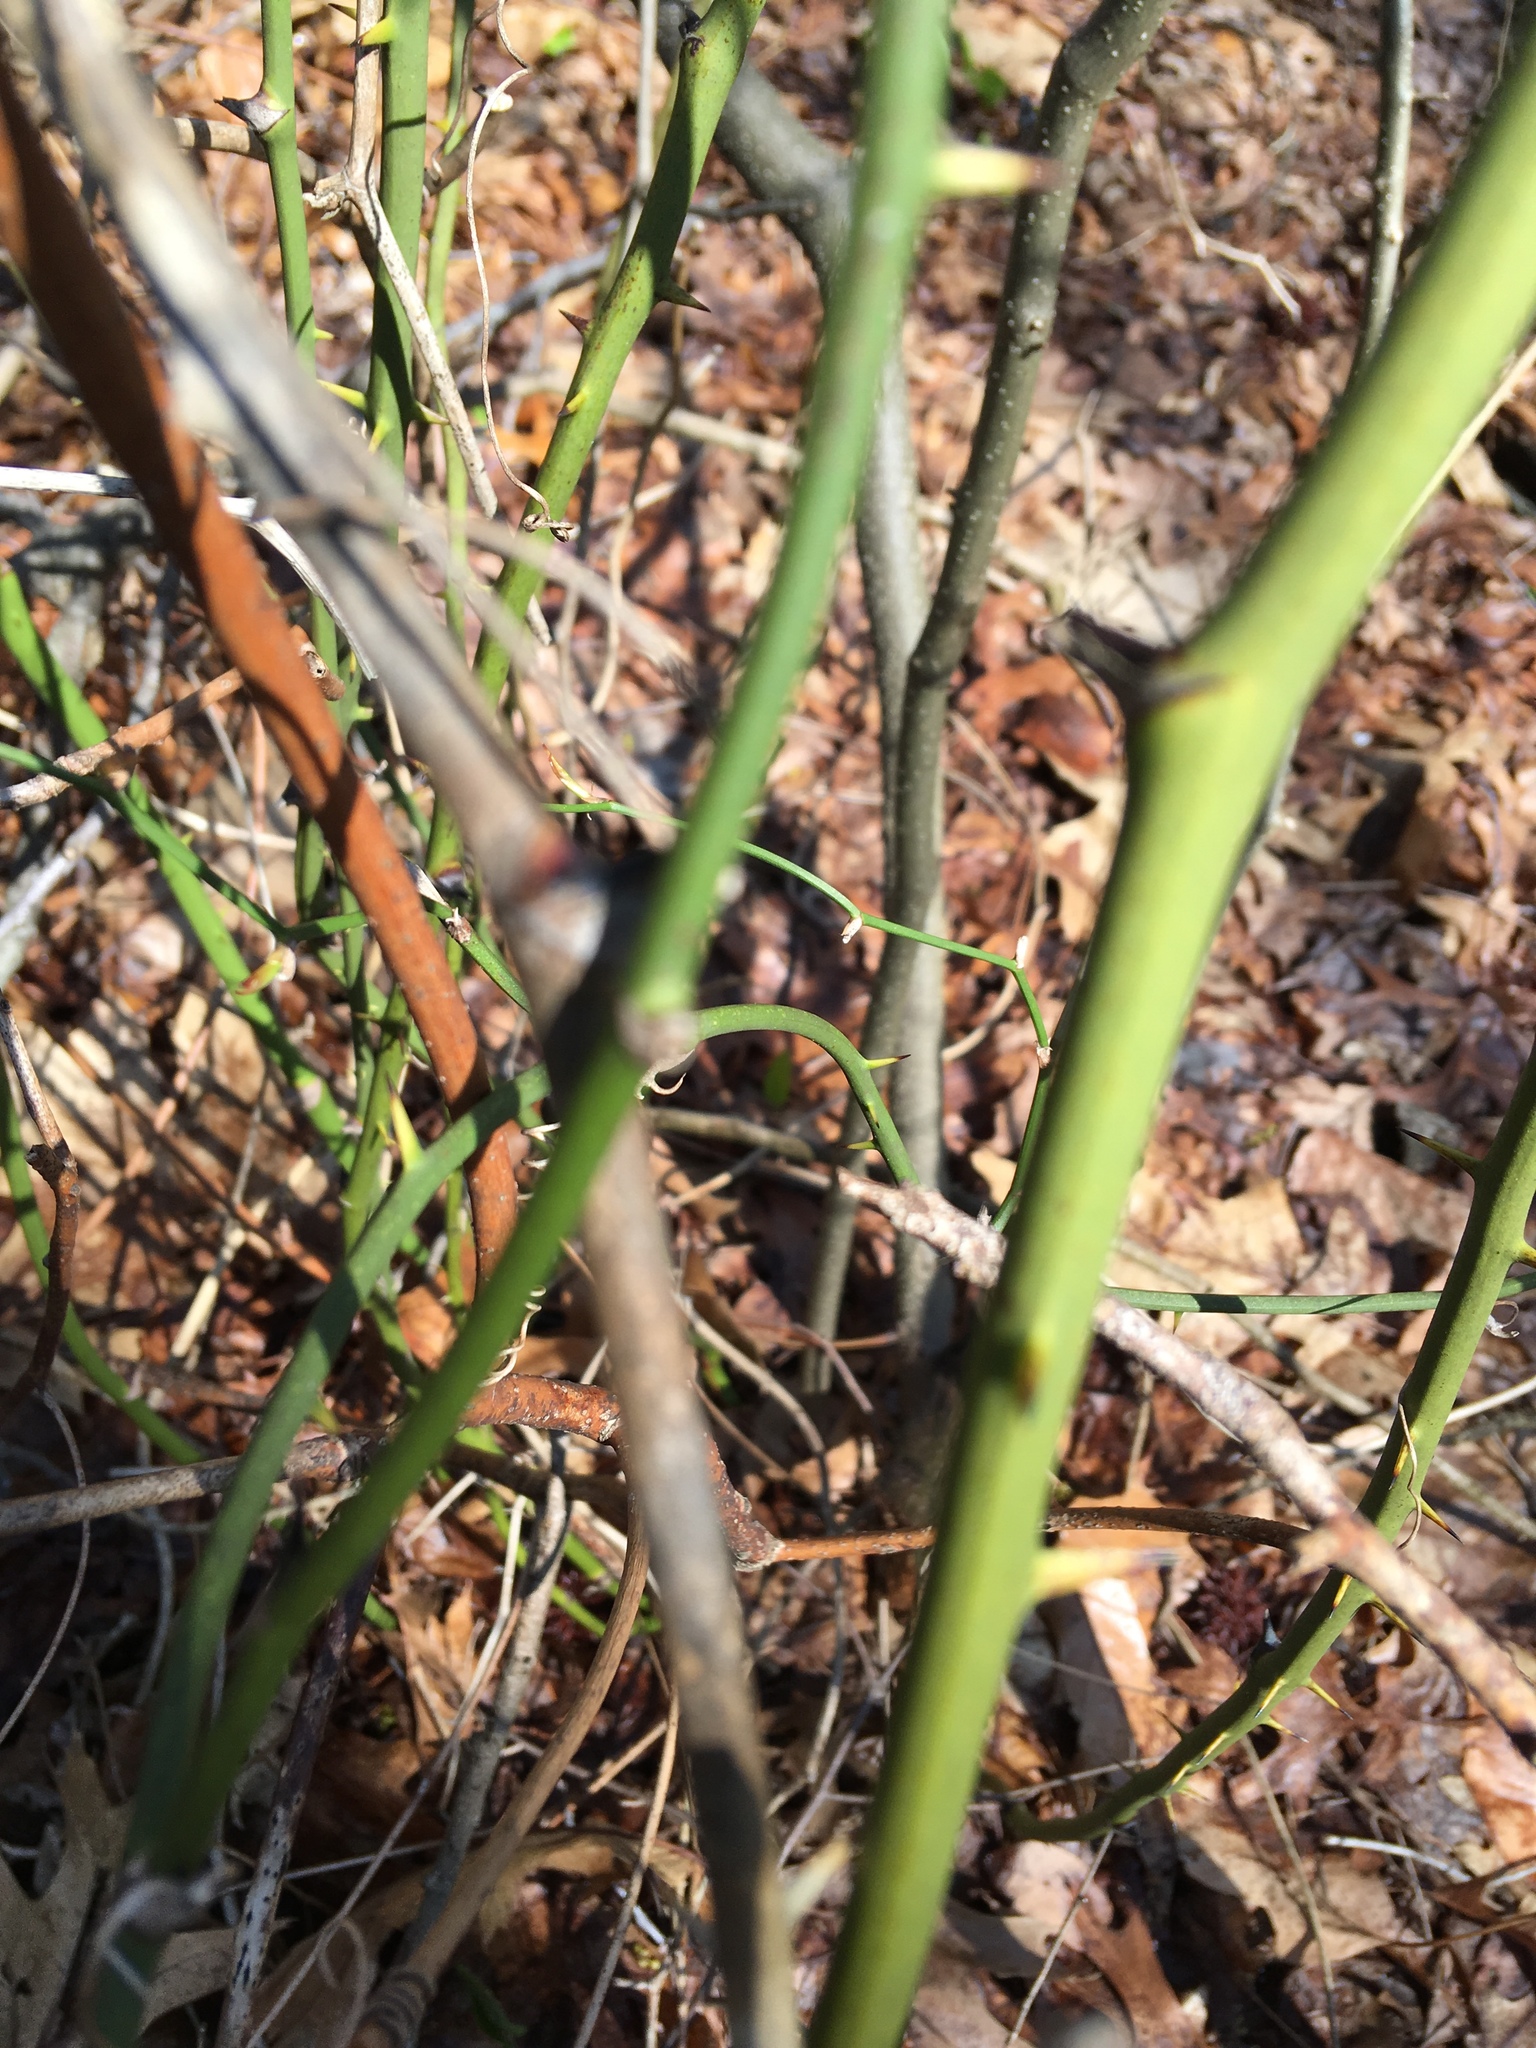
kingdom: Plantae
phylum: Tracheophyta
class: Liliopsida
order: Liliales
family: Smilacaceae
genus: Smilax
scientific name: Smilax rotundifolia
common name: Bullbriar
